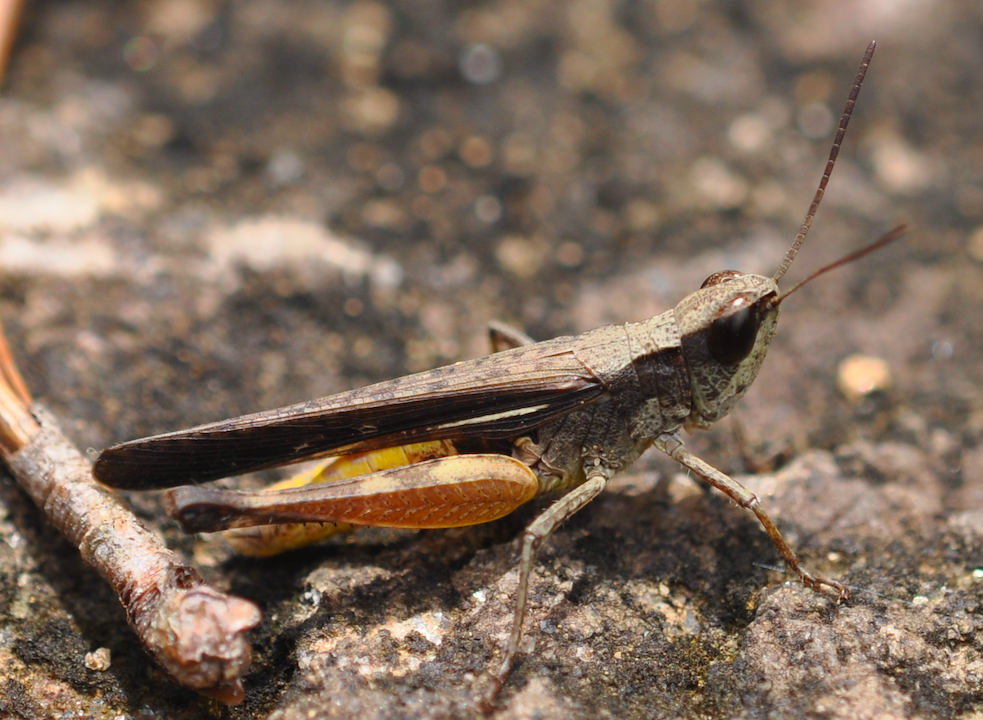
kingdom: Animalia
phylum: Arthropoda
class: Insecta
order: Orthoptera
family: Acrididae
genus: Gymnobothrus
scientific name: Gymnobothrus variabilis
